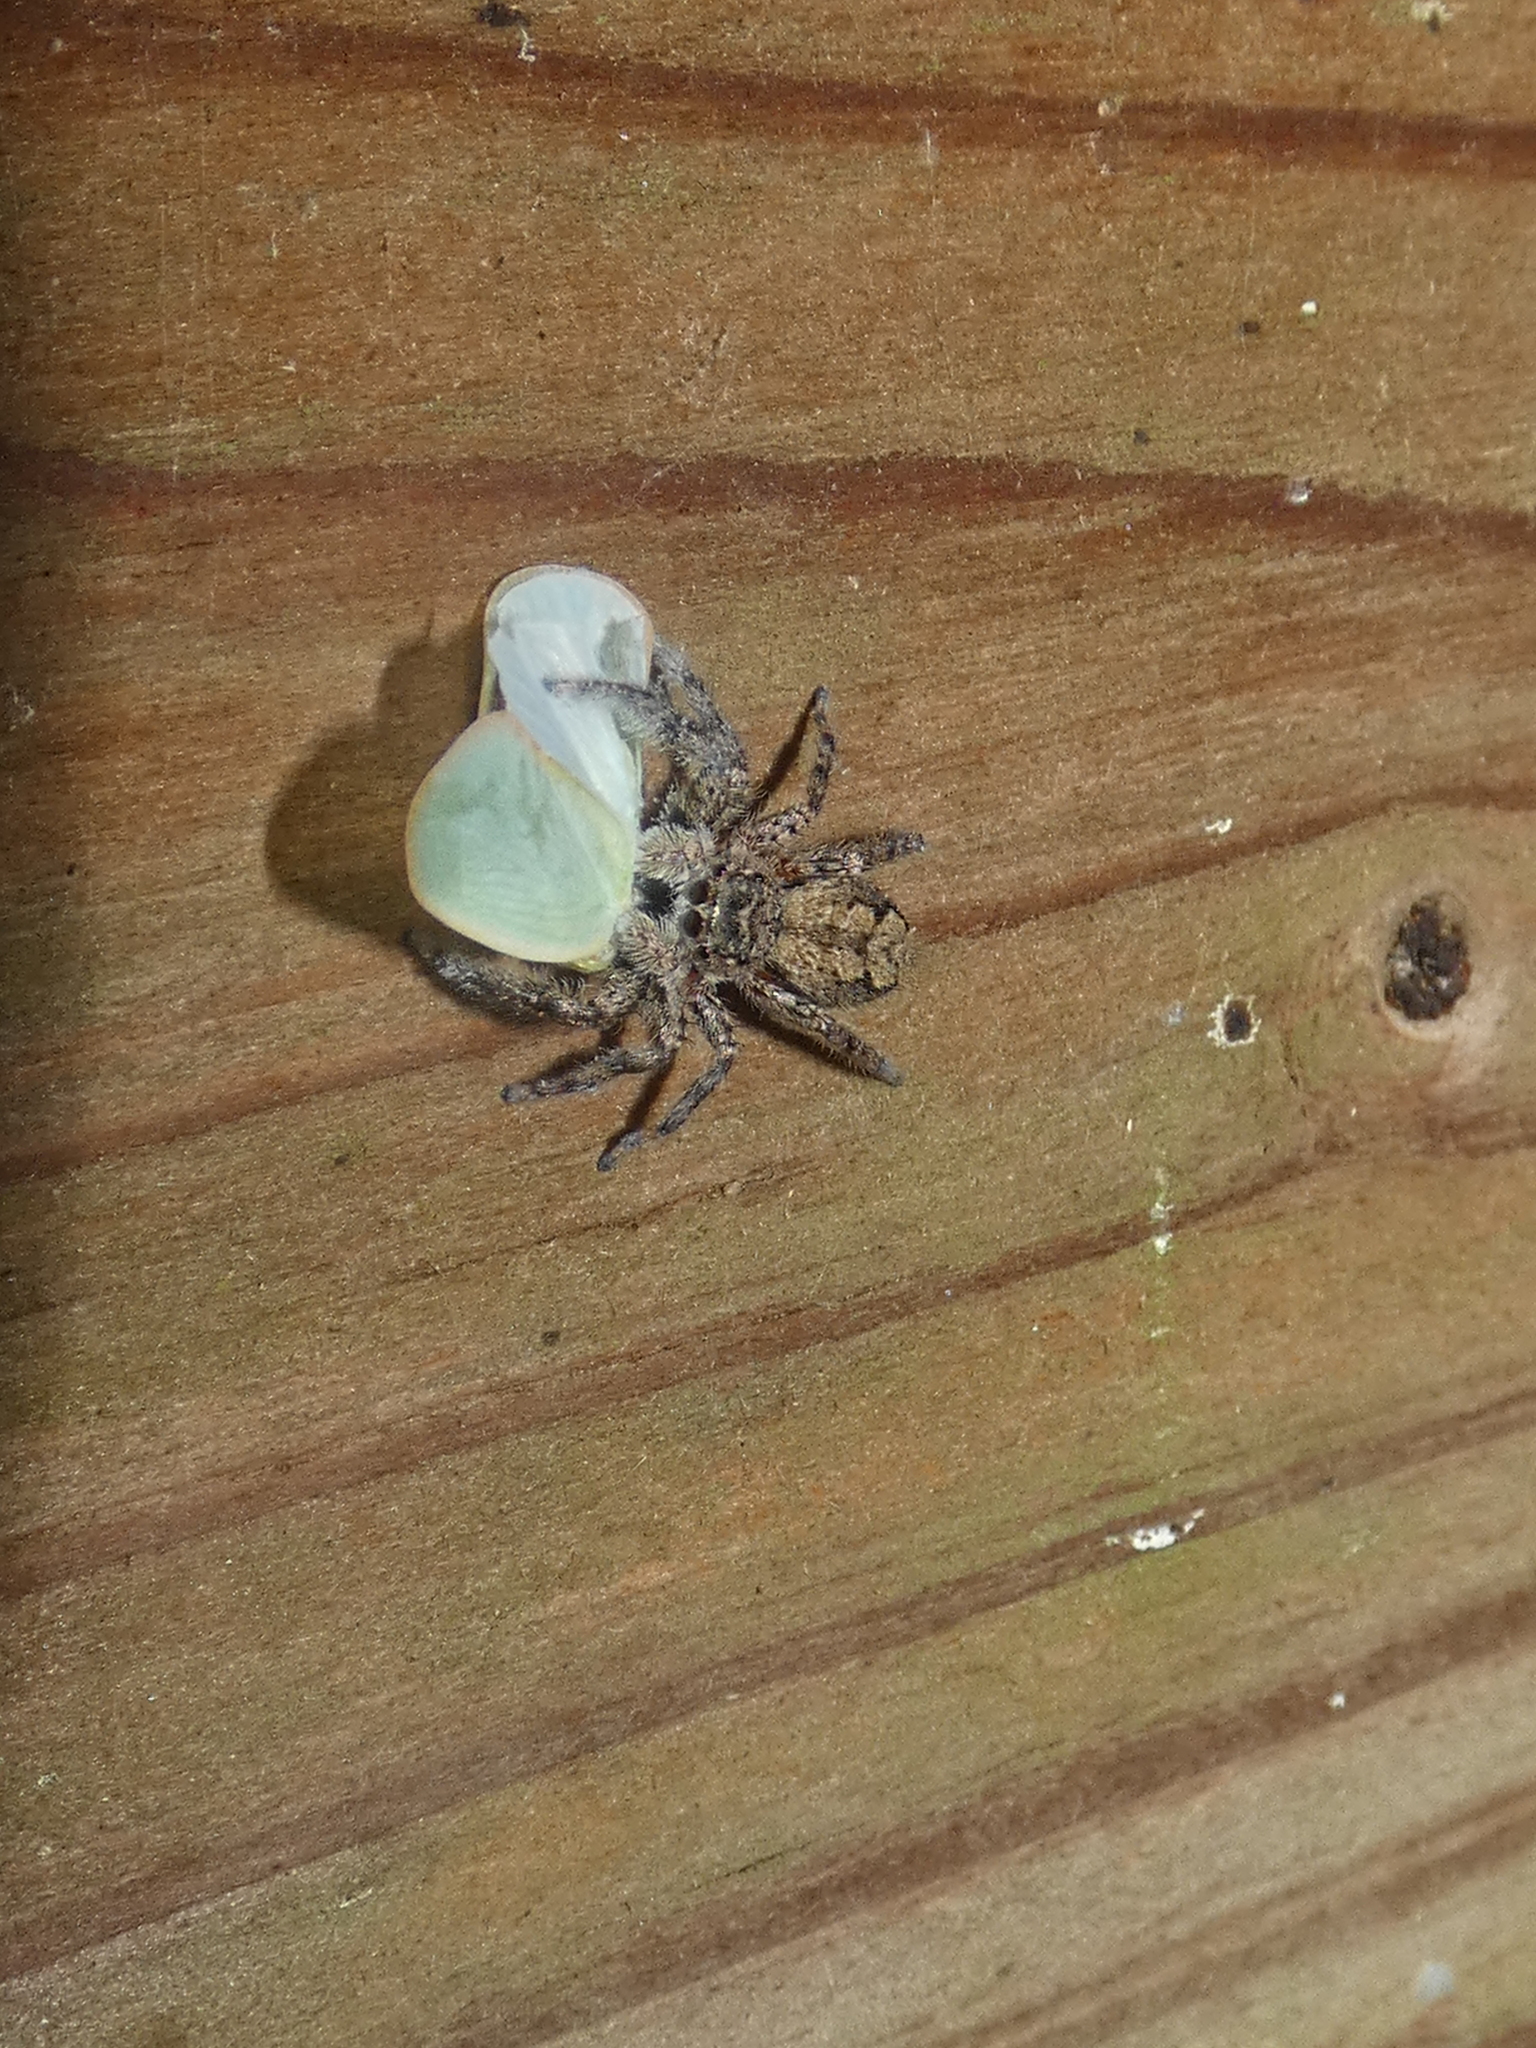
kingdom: Animalia
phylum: Arthropoda
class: Arachnida
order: Araneae
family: Salticidae
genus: Platycryptus
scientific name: Platycryptus undatus
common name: Tan jumping spider
